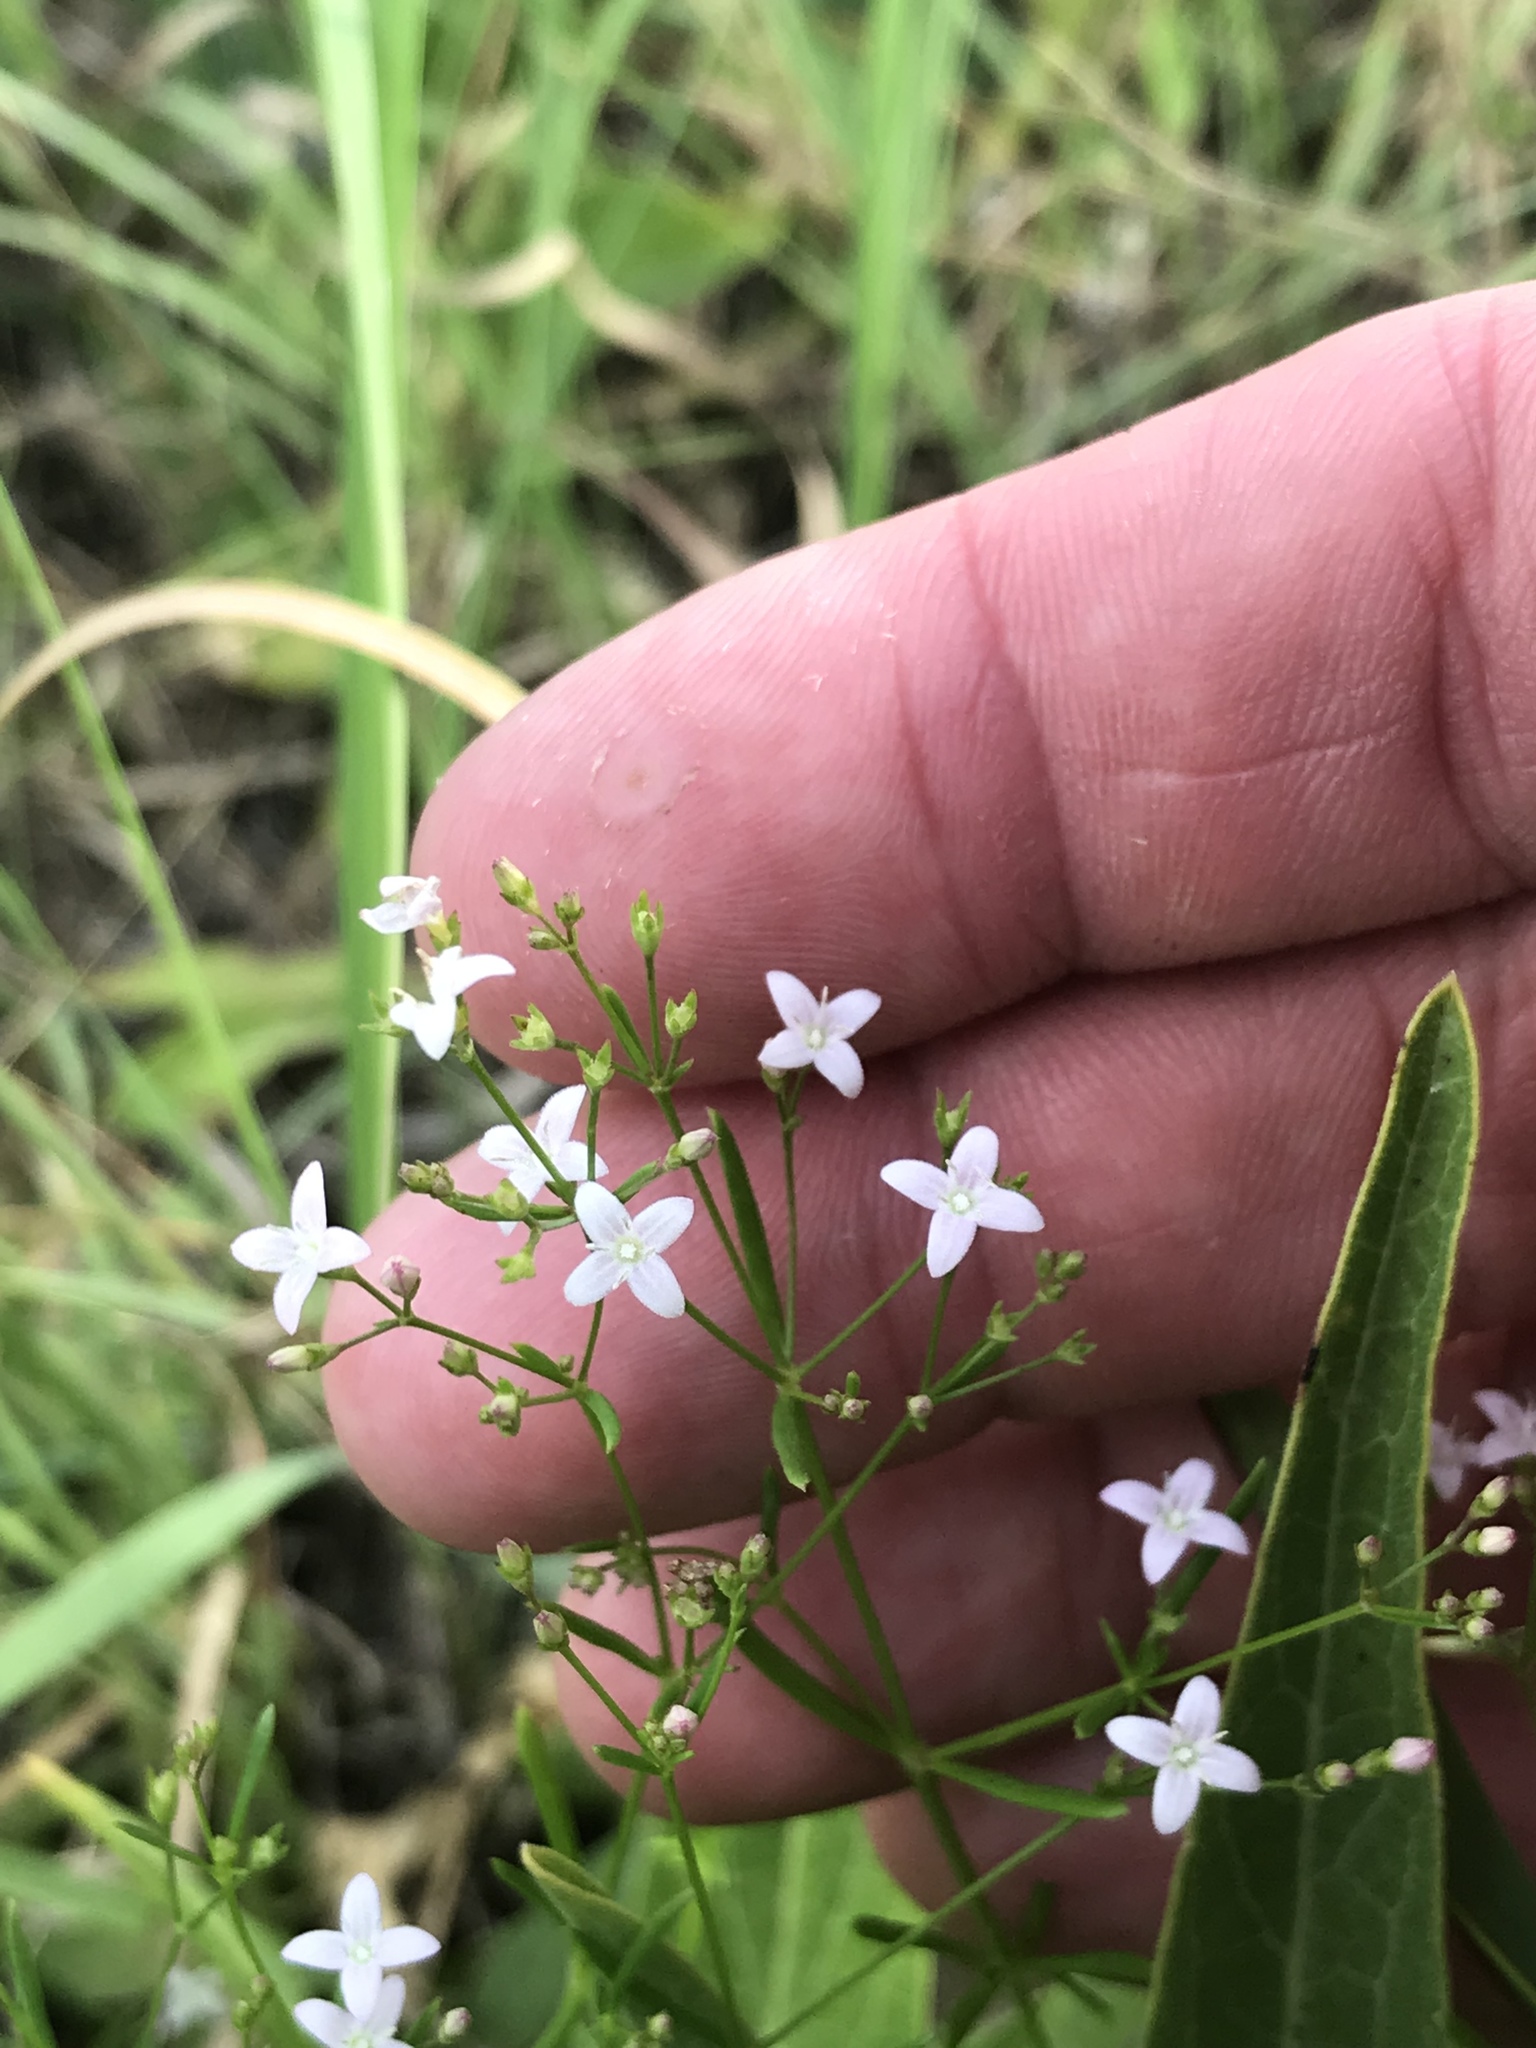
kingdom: Plantae
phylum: Tracheophyta
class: Magnoliopsida
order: Gentianales
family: Rubiaceae
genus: Stenaria
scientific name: Stenaria nigricans
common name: Diamondflowers
